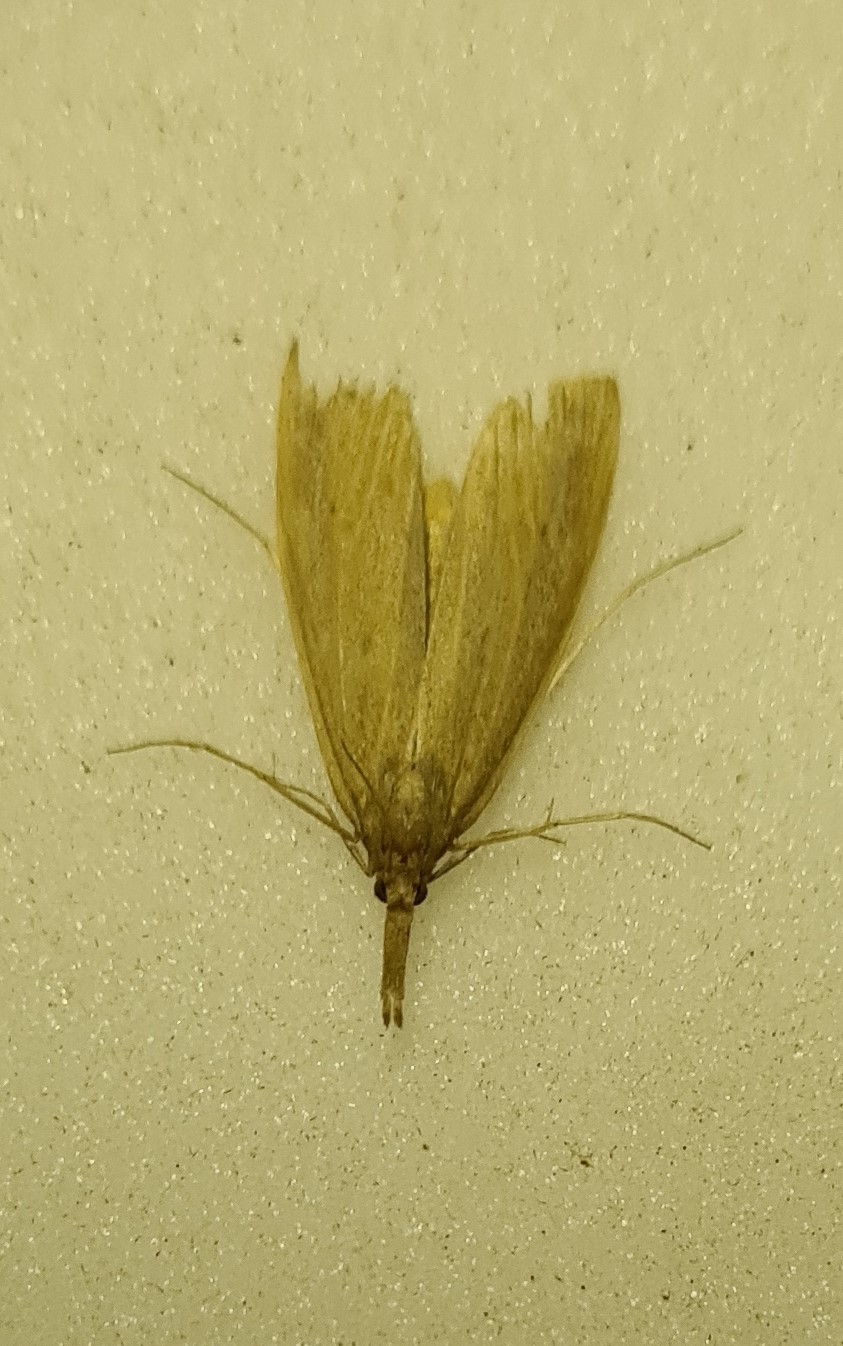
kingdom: Animalia
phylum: Arthropoda
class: Insecta
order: Lepidoptera
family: Crambidae
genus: Schoenobius
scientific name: Schoenobius gigantella
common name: Giant water-veneer
